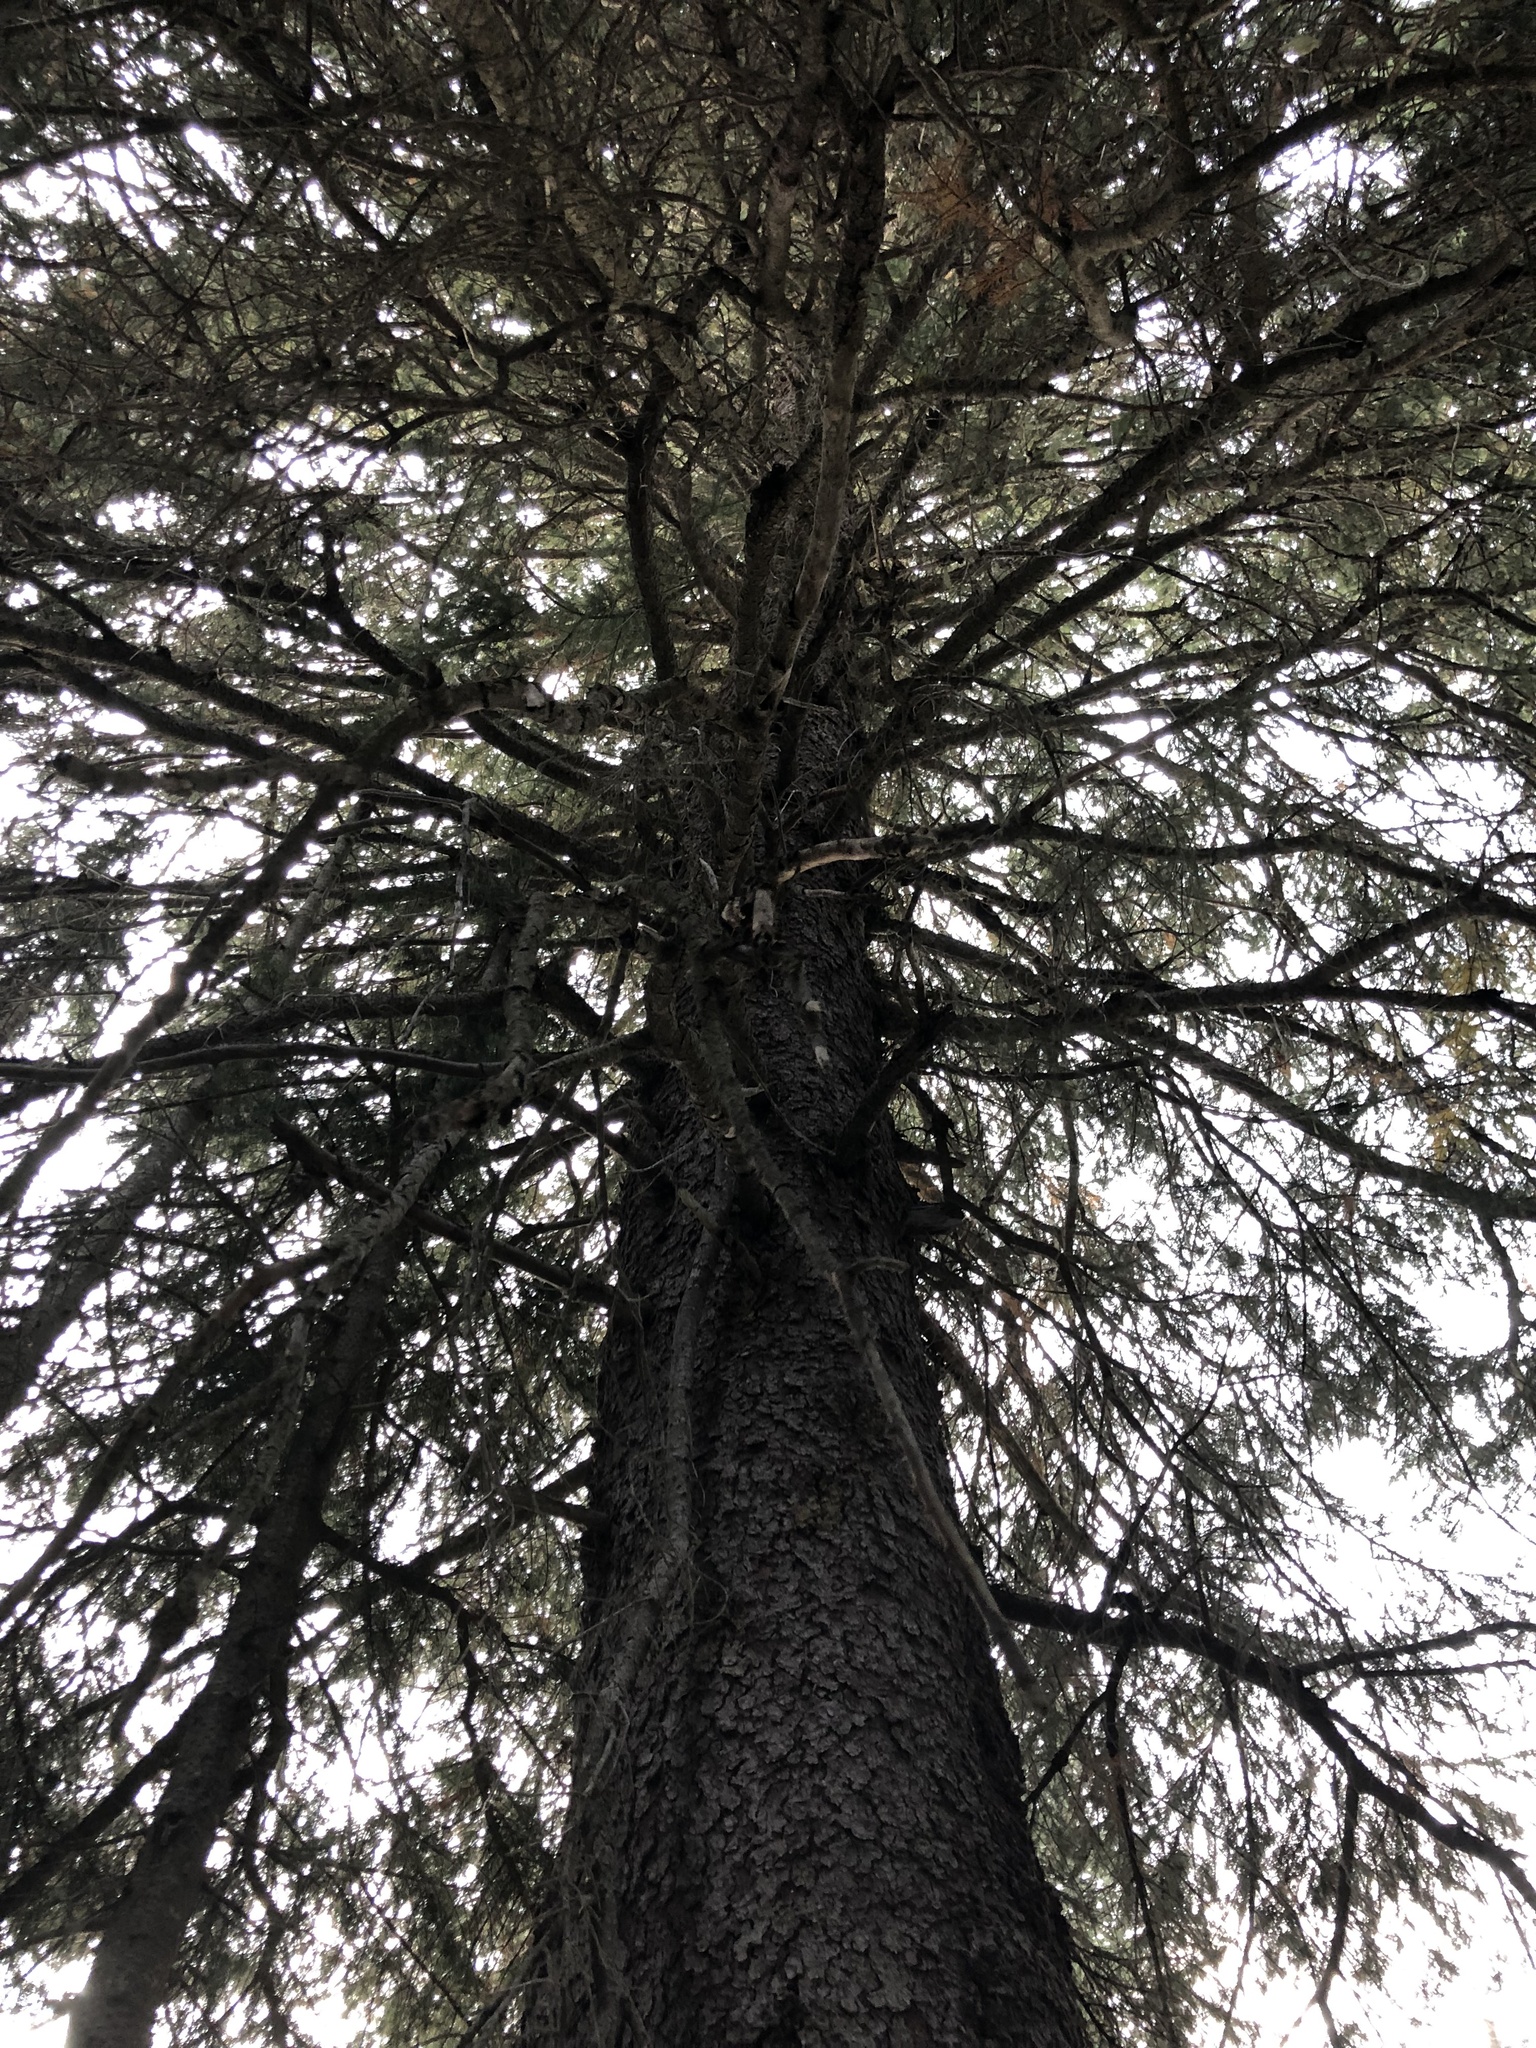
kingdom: Plantae
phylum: Tracheophyta
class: Pinopsida
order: Pinales
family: Pinaceae
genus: Picea
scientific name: Picea engelmannii
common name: Engelmann spruce
